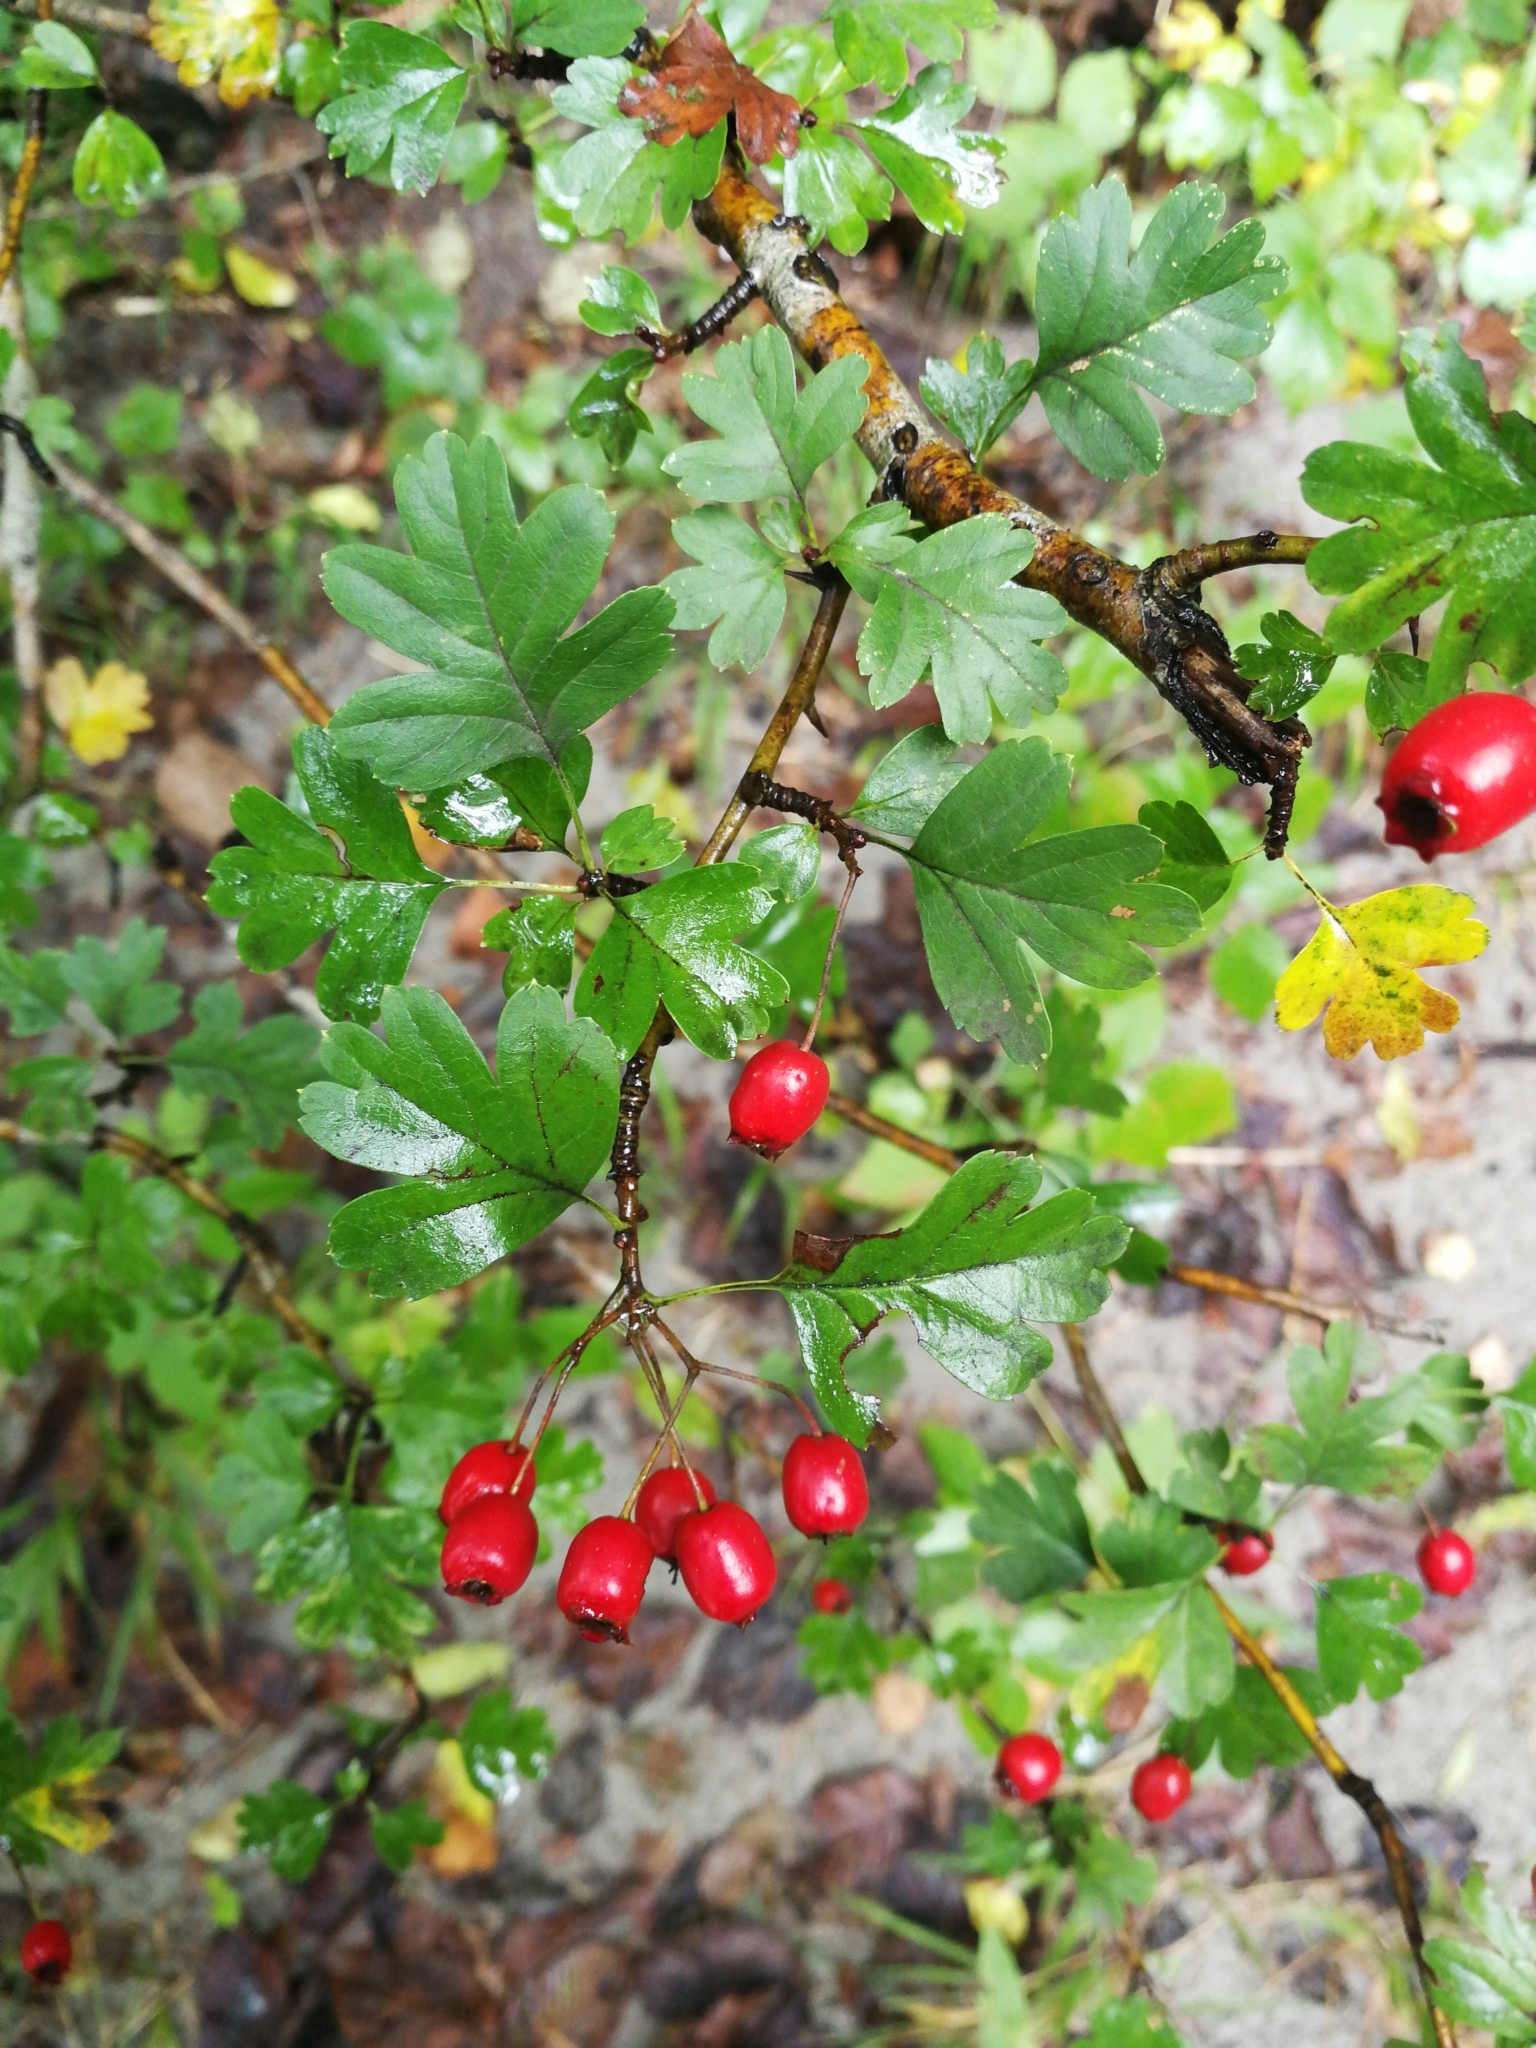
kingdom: Plantae
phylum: Tracheophyta
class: Magnoliopsida
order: Rosales
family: Rosaceae
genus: Crataegus
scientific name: Crataegus monogyna
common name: Hawthorn
